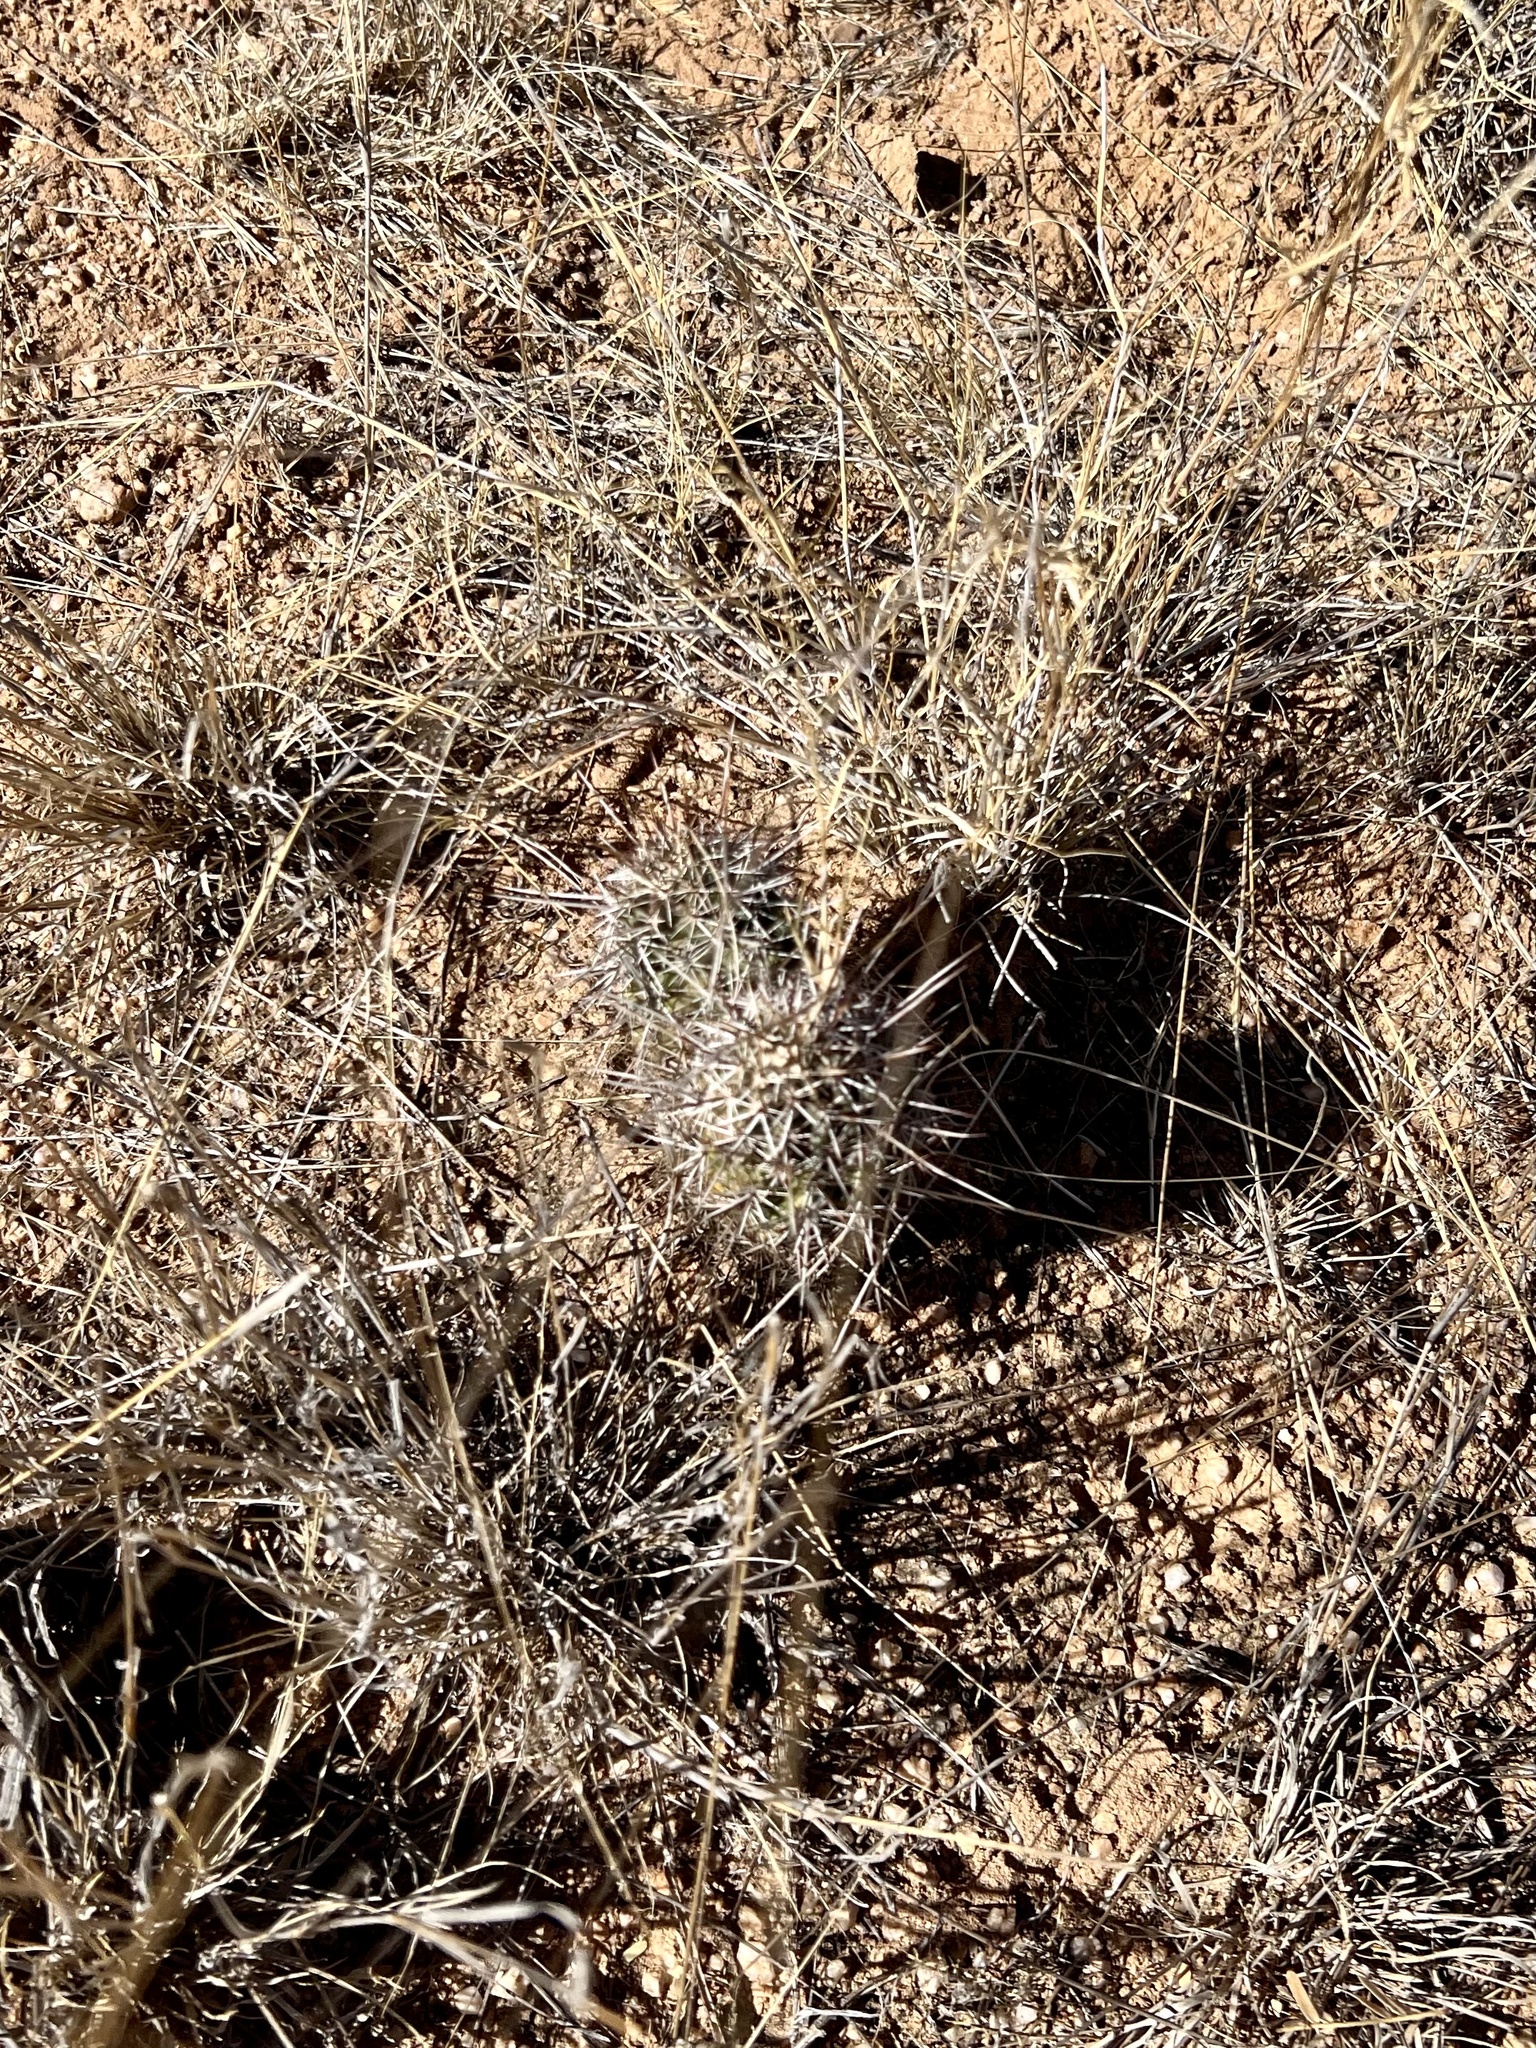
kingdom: Plantae
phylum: Tracheophyta
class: Magnoliopsida
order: Caryophyllales
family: Cactaceae
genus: Echinocereus
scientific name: Echinocereus fendleri
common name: Fendler's hedgehog cactus
